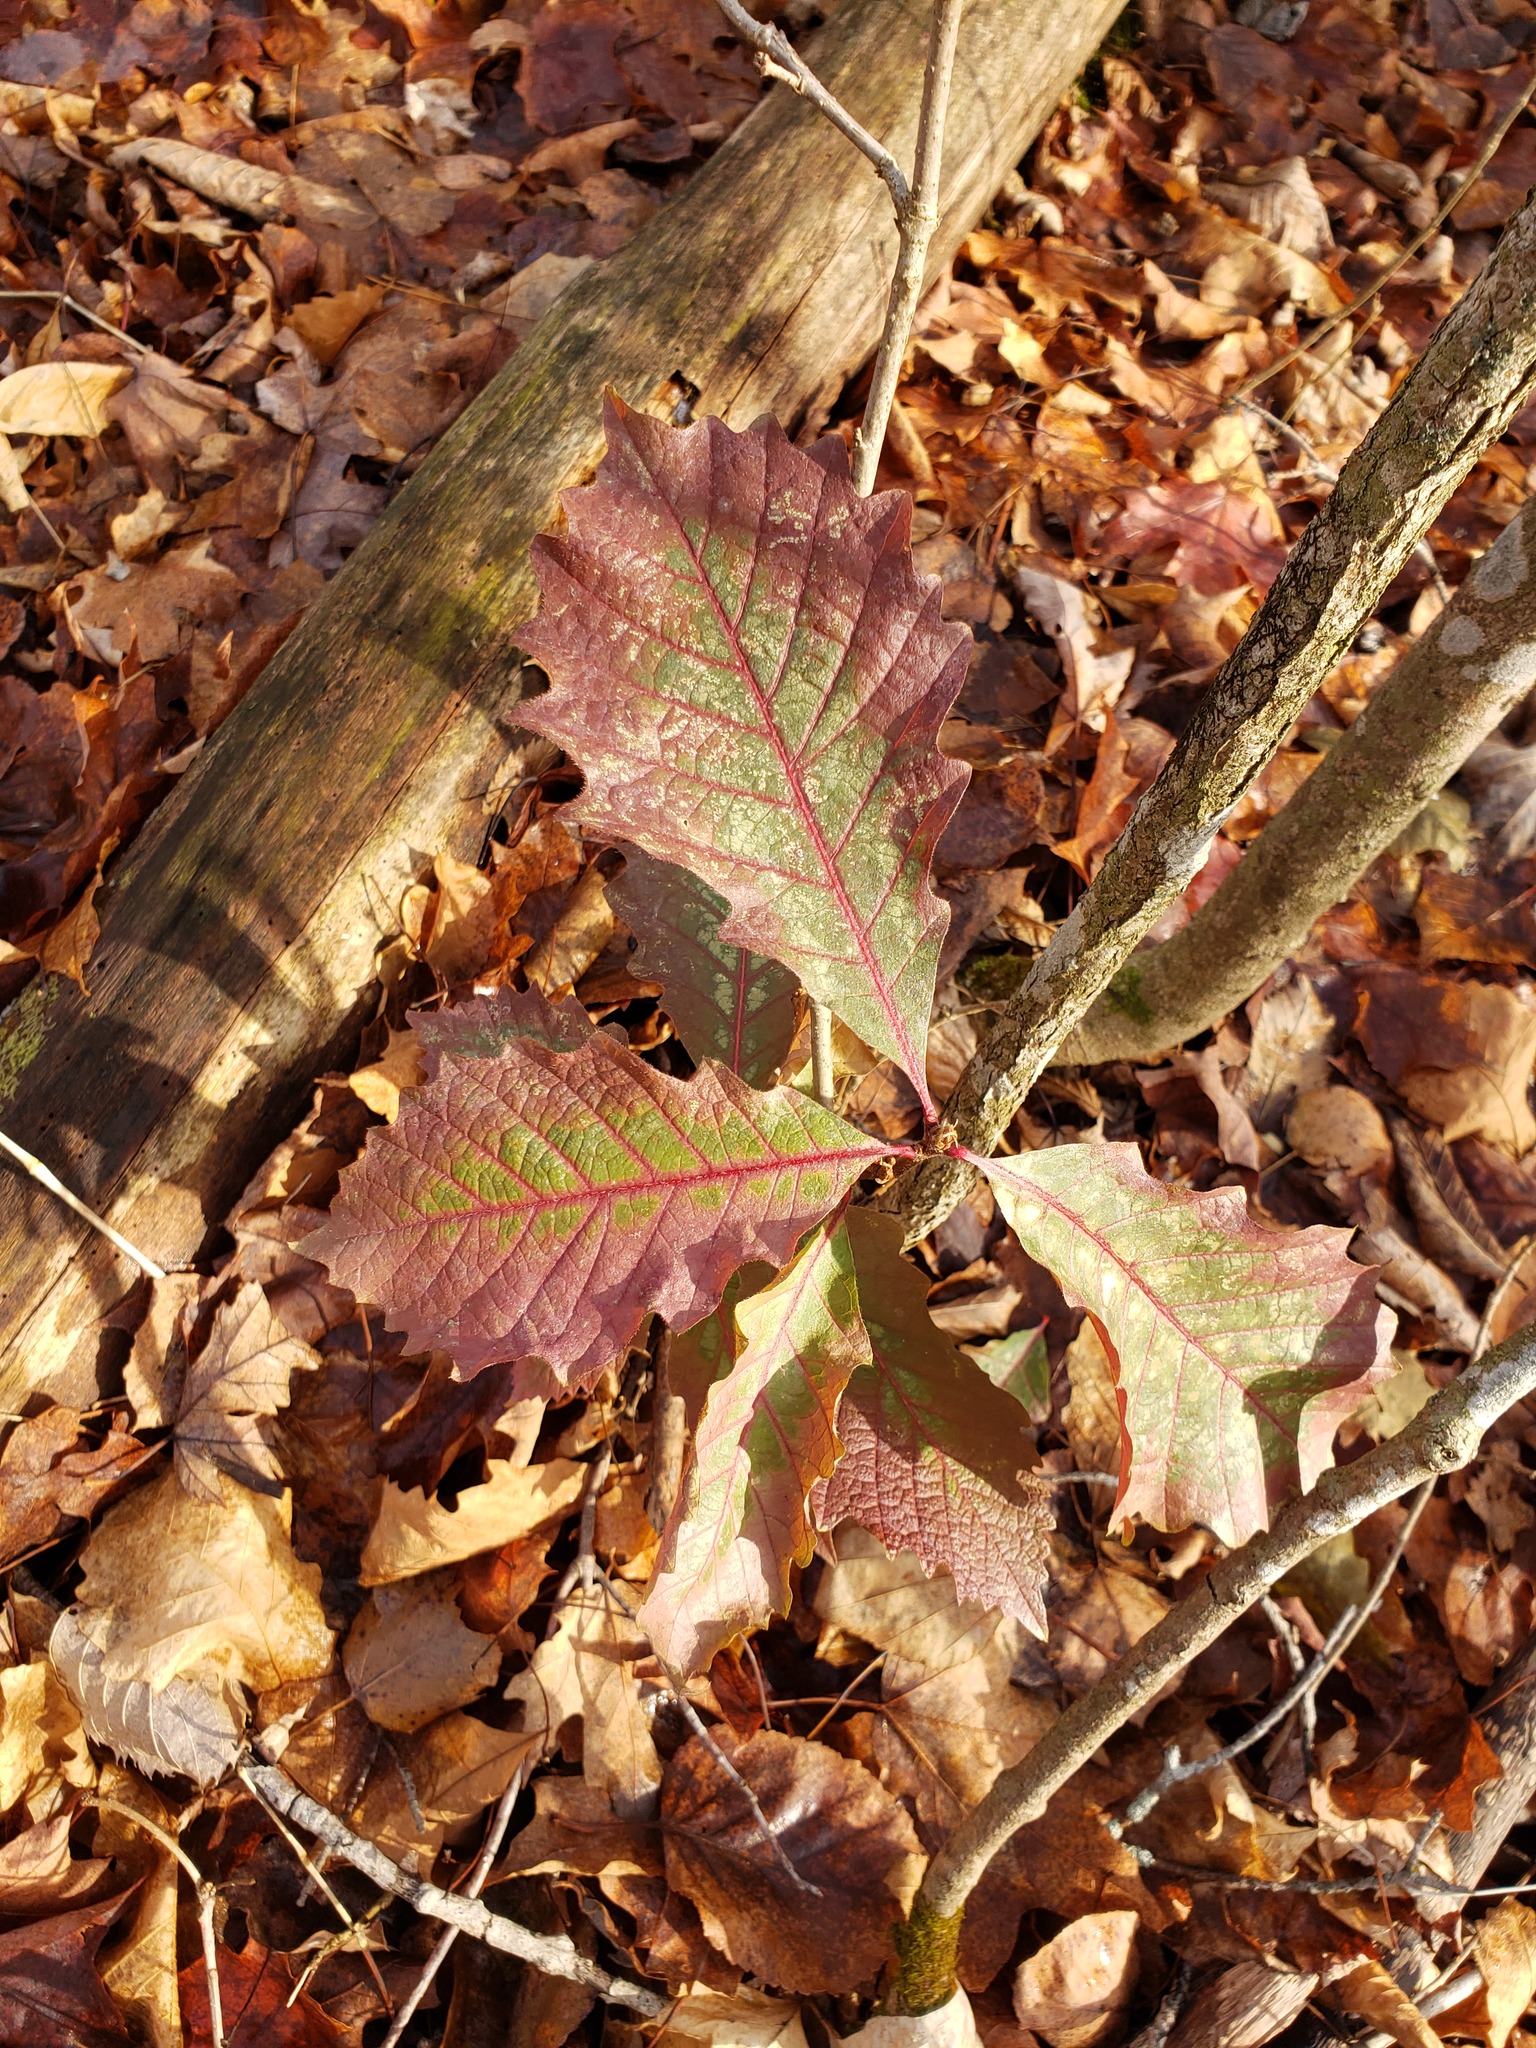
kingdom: Plantae
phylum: Tracheophyta
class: Magnoliopsida
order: Fagales
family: Fagaceae
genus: Quercus
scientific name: Quercus macrocarpa
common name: Bur oak
